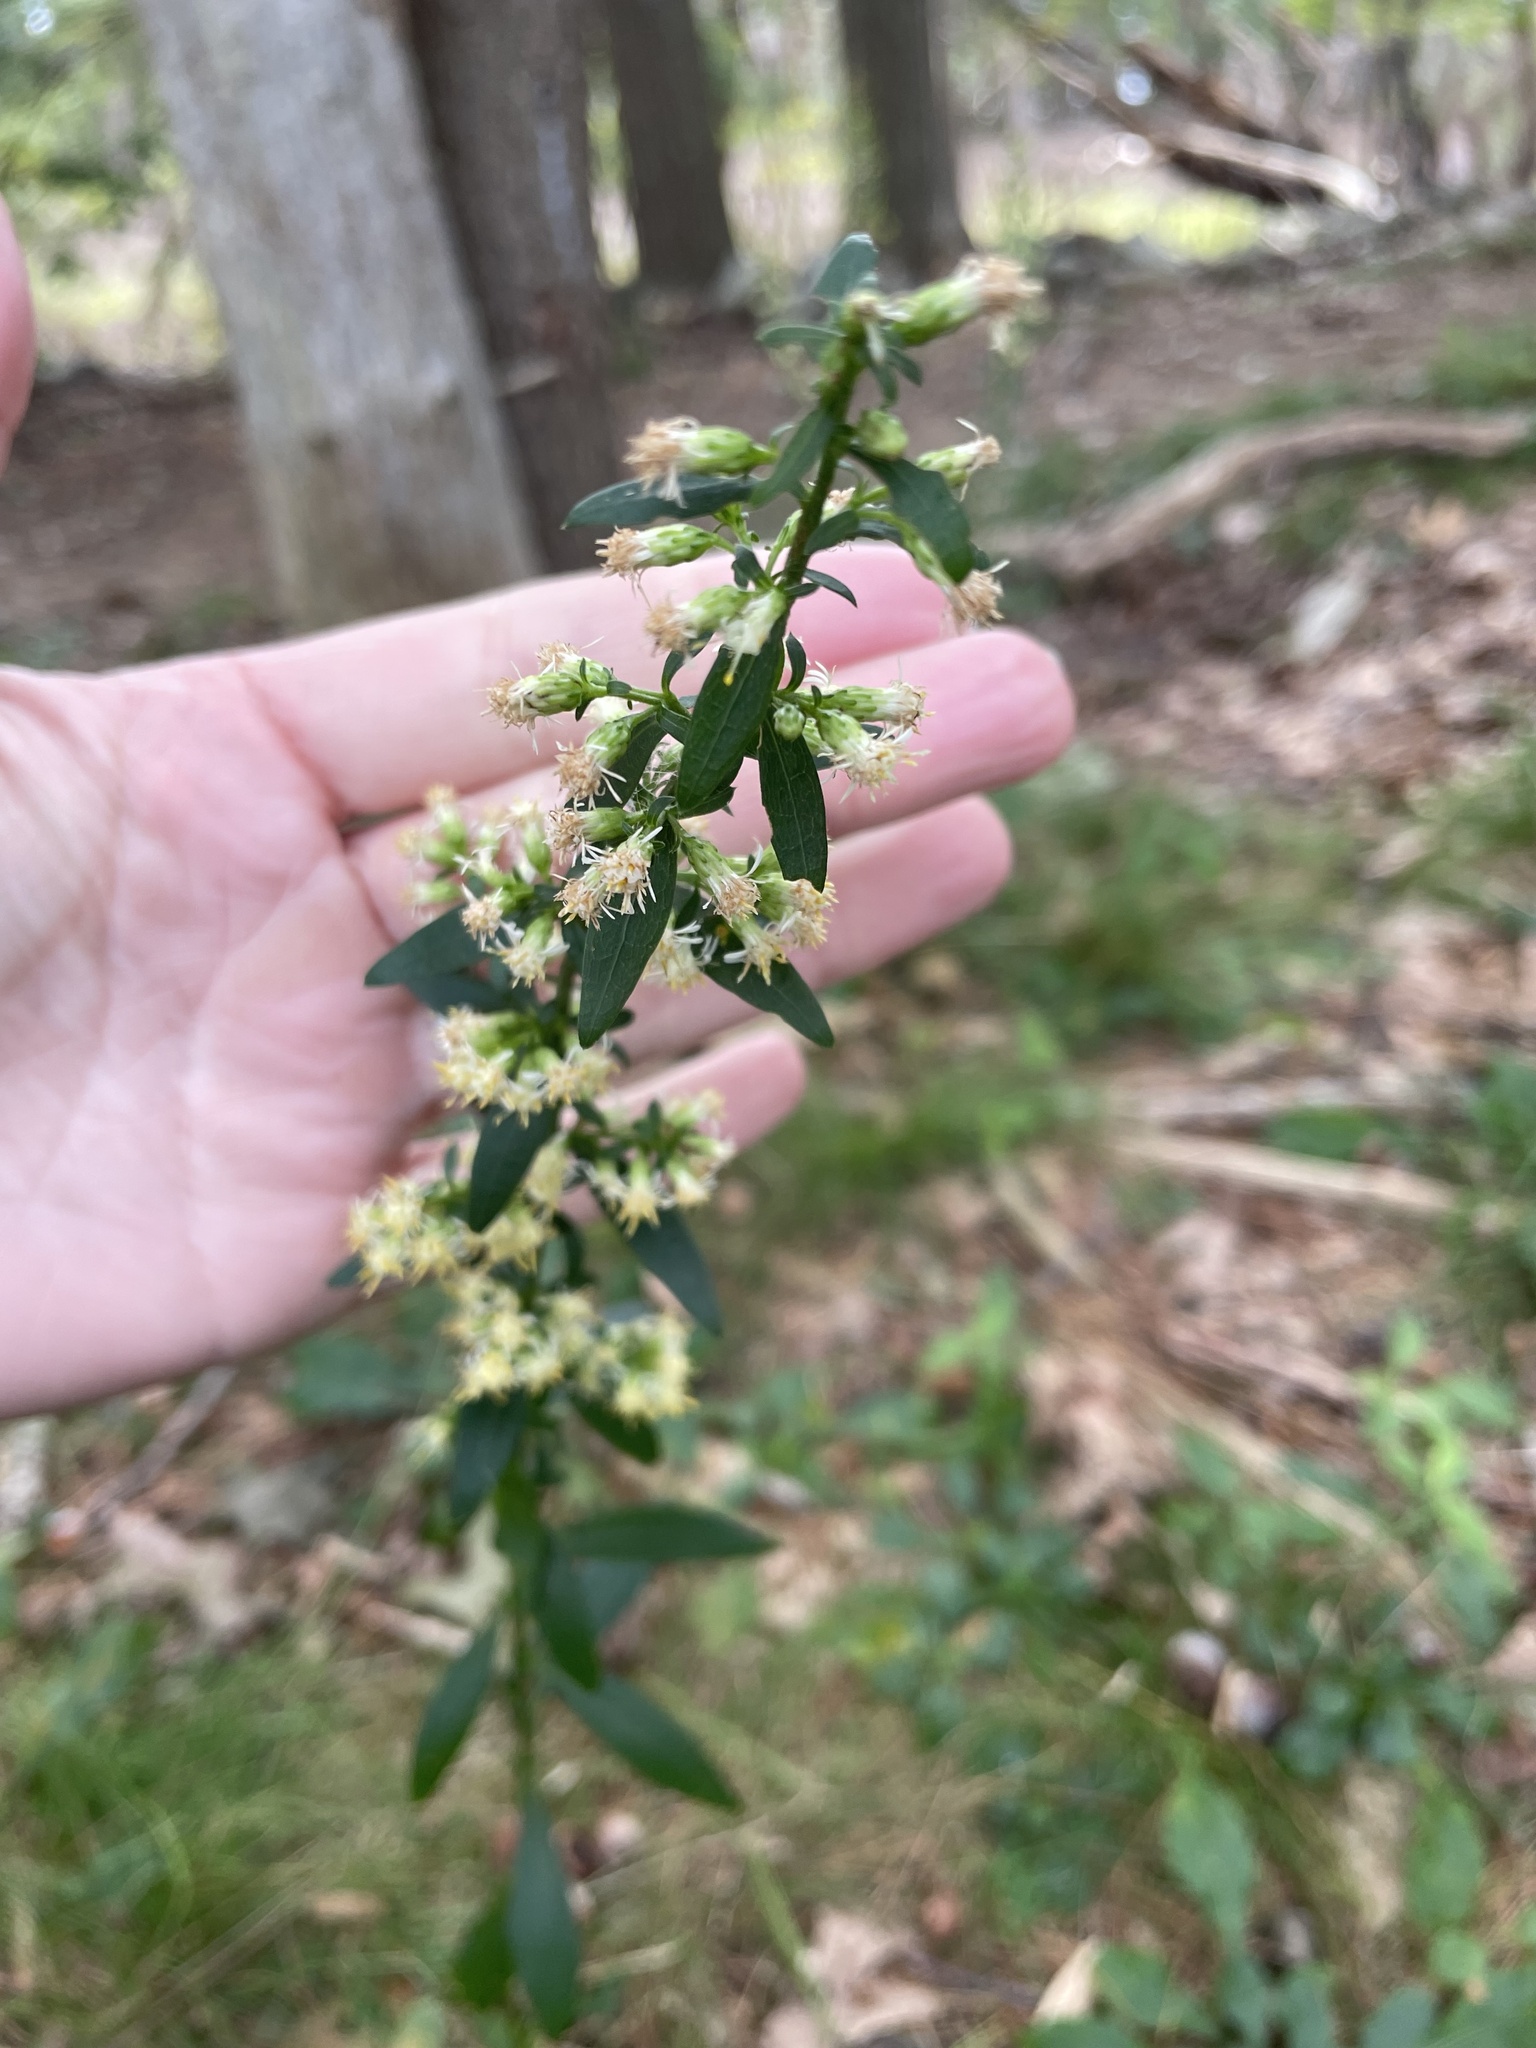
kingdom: Plantae
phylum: Tracheophyta
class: Magnoliopsida
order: Asterales
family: Asteraceae
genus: Solidago
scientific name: Solidago bicolor
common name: Silverrod
